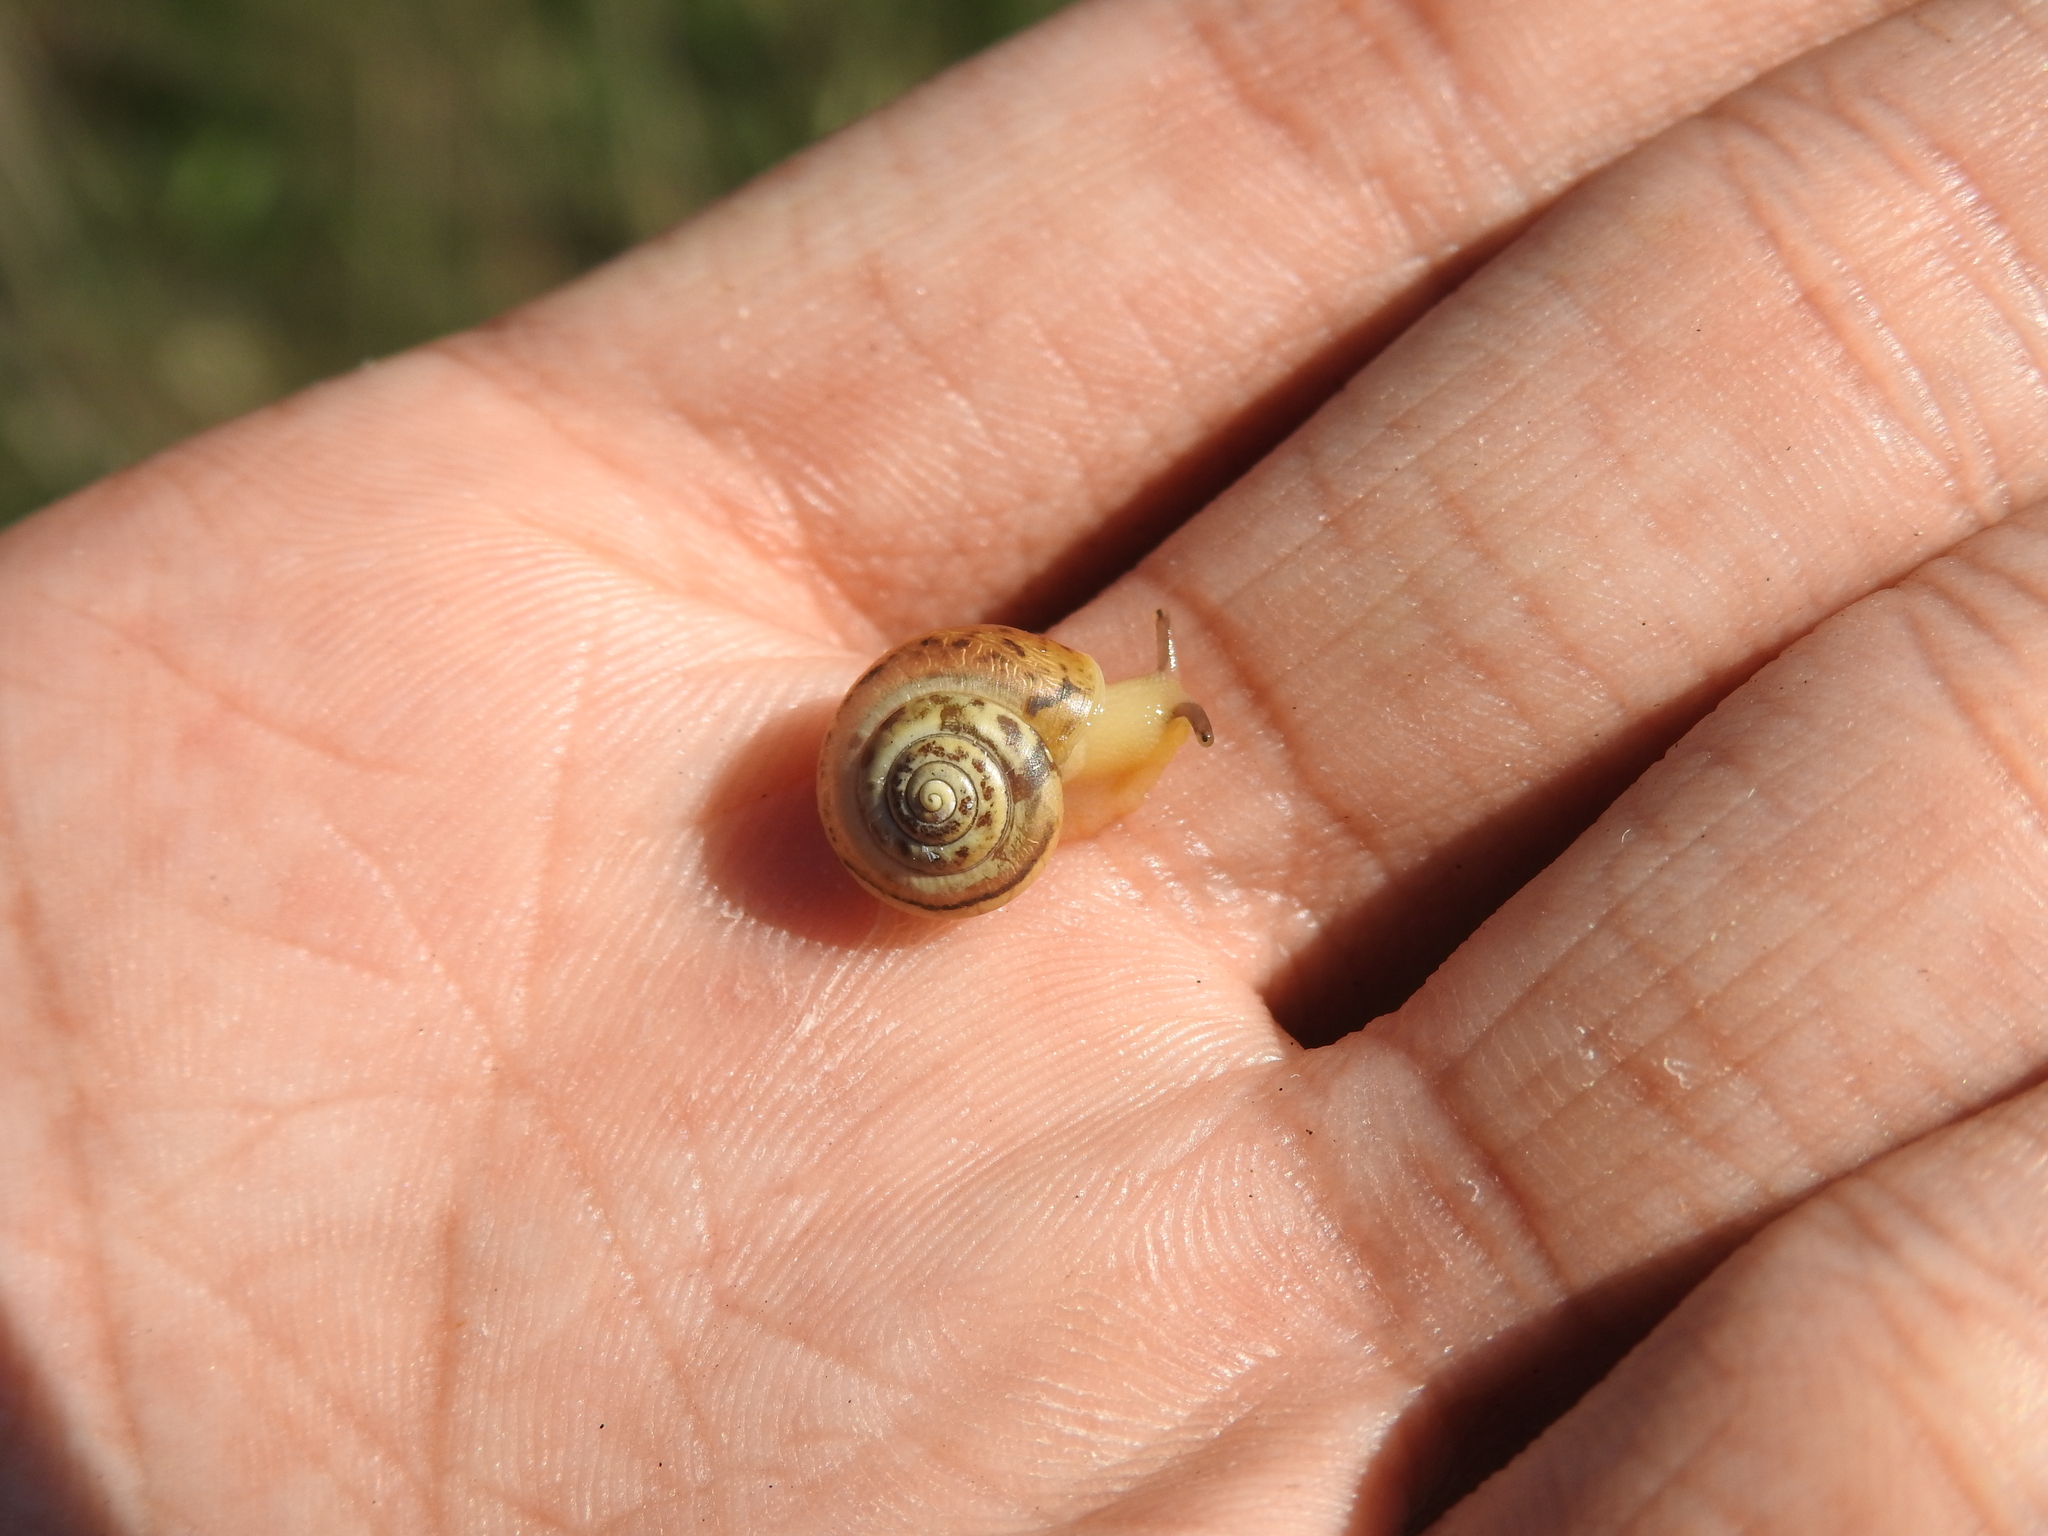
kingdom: Animalia
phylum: Mollusca
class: Gastropoda
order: Stylommatophora
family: Camaenidae
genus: Fruticicola
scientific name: Fruticicola fruticum
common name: Bush snail
